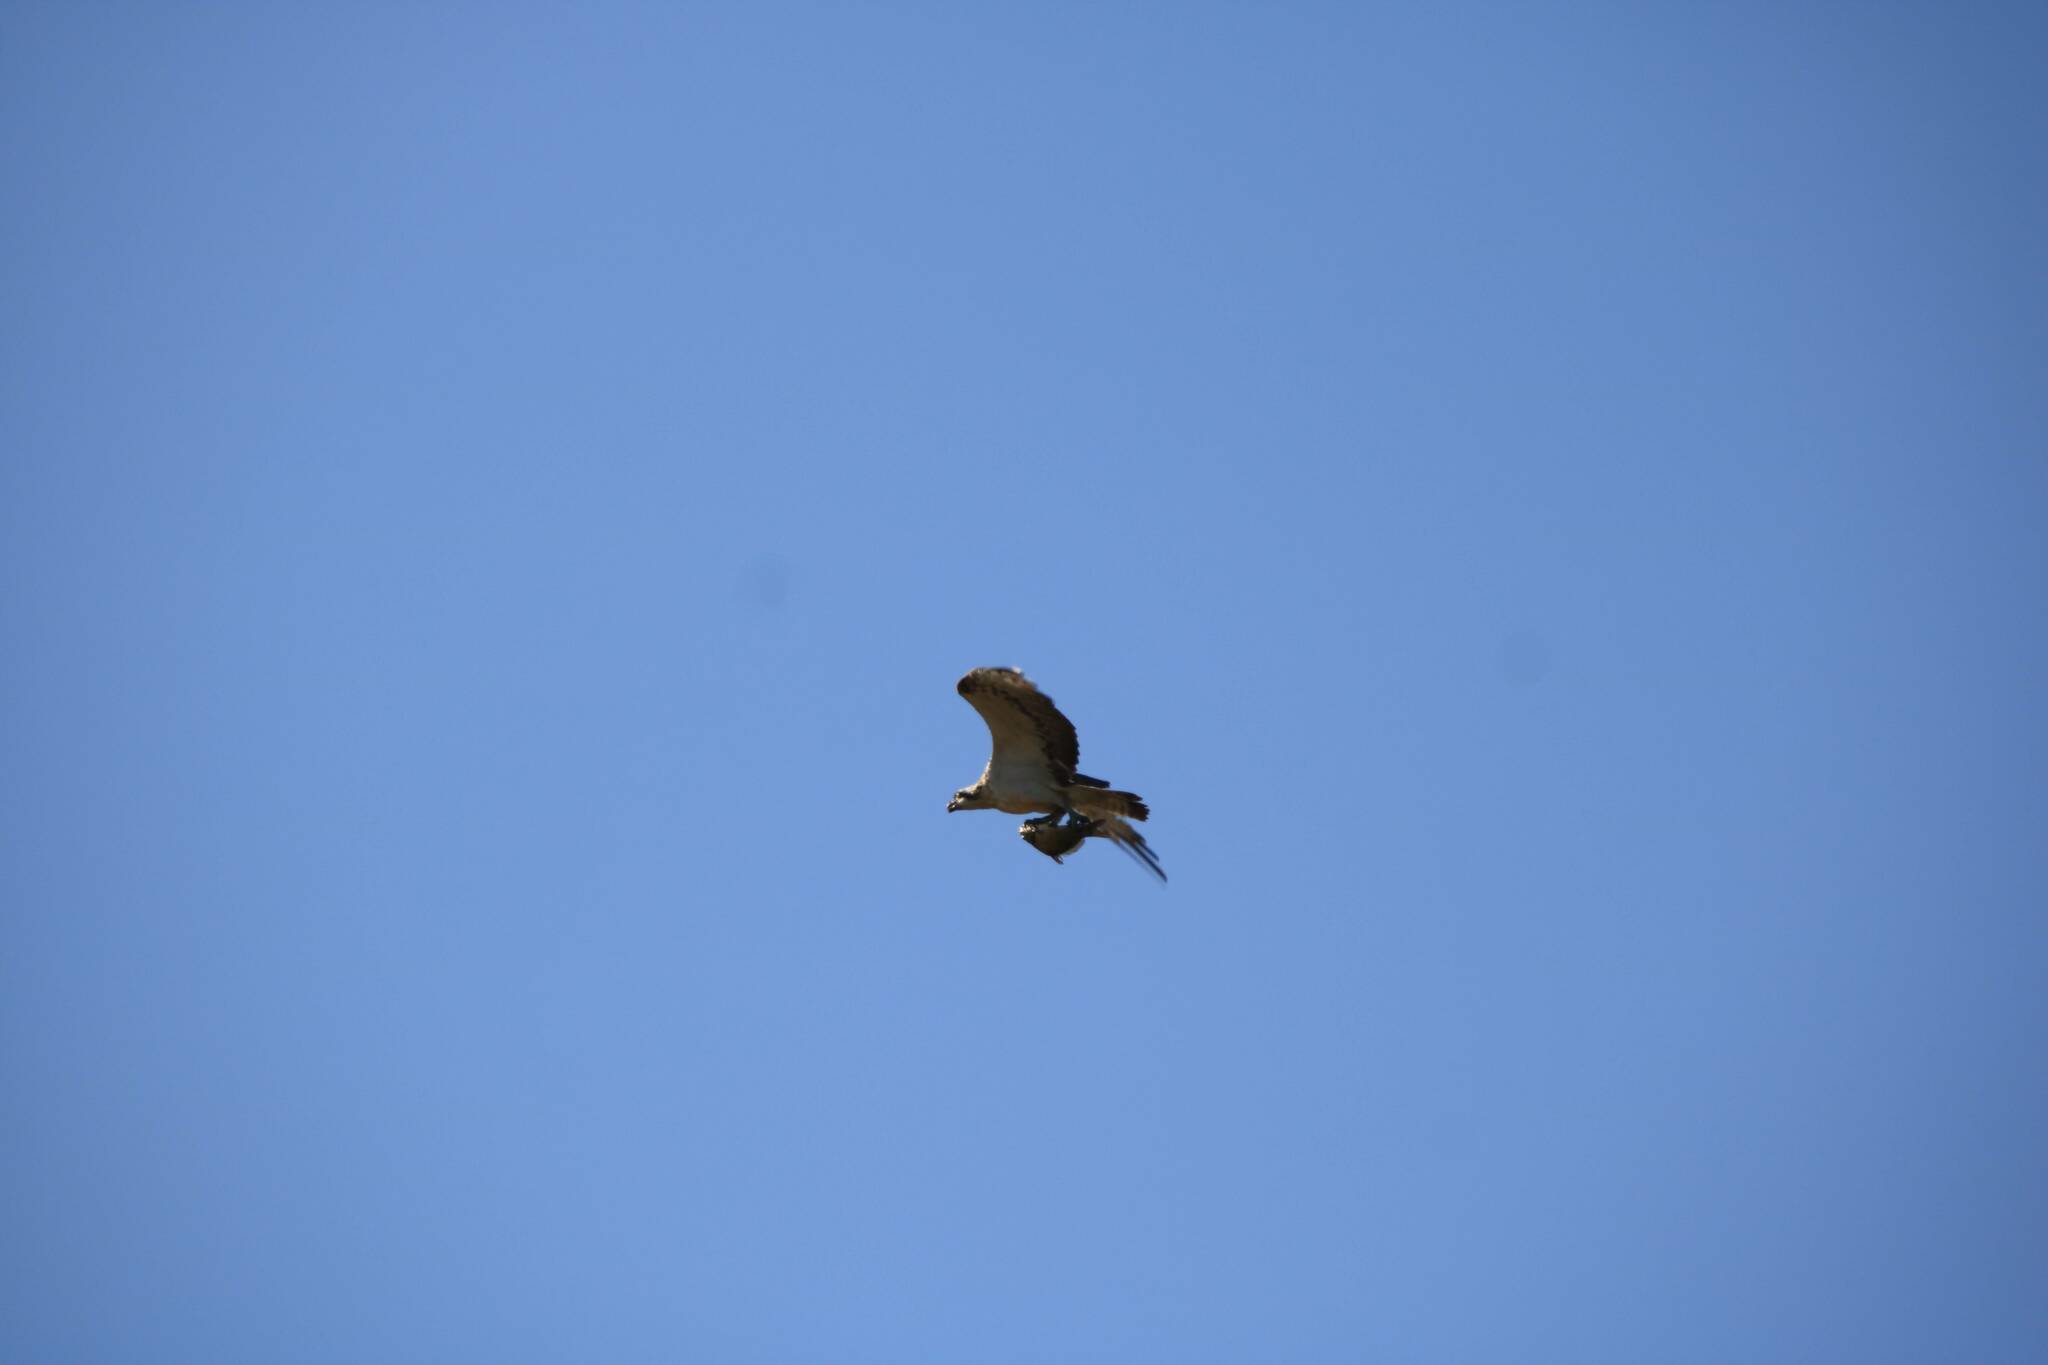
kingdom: Animalia
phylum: Chordata
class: Aves
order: Accipitriformes
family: Pandionidae
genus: Pandion
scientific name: Pandion haliaetus
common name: Osprey
